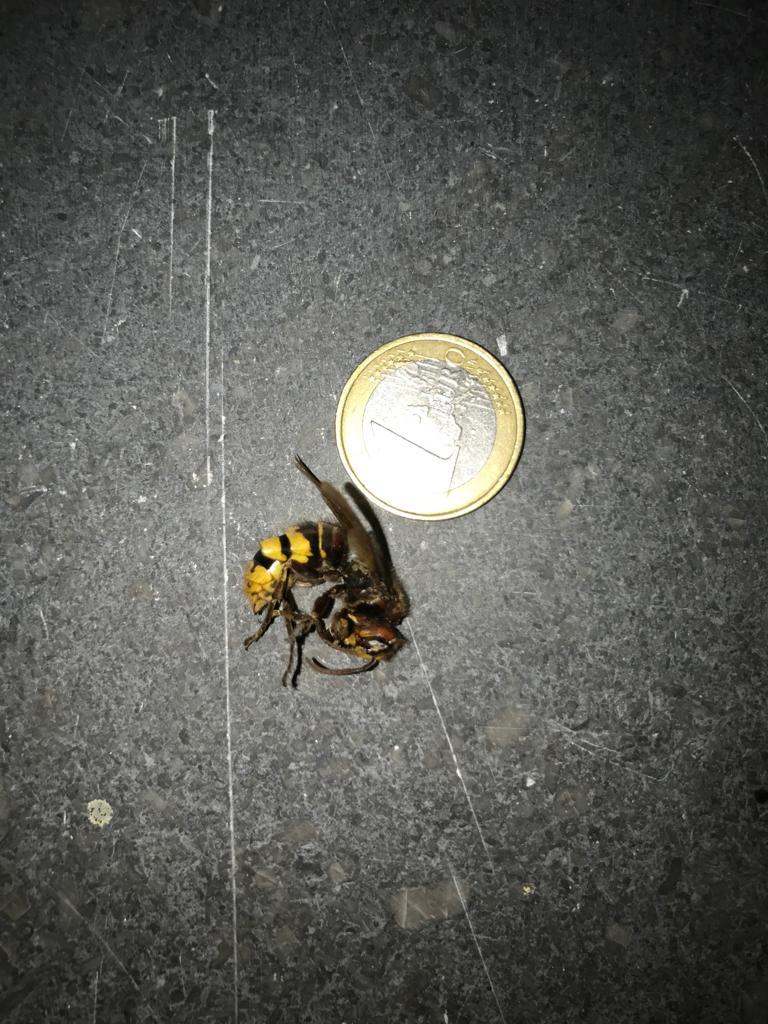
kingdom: Animalia
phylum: Arthropoda
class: Insecta
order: Hymenoptera
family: Vespidae
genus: Vespa
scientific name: Vespa crabro
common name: Hornet
